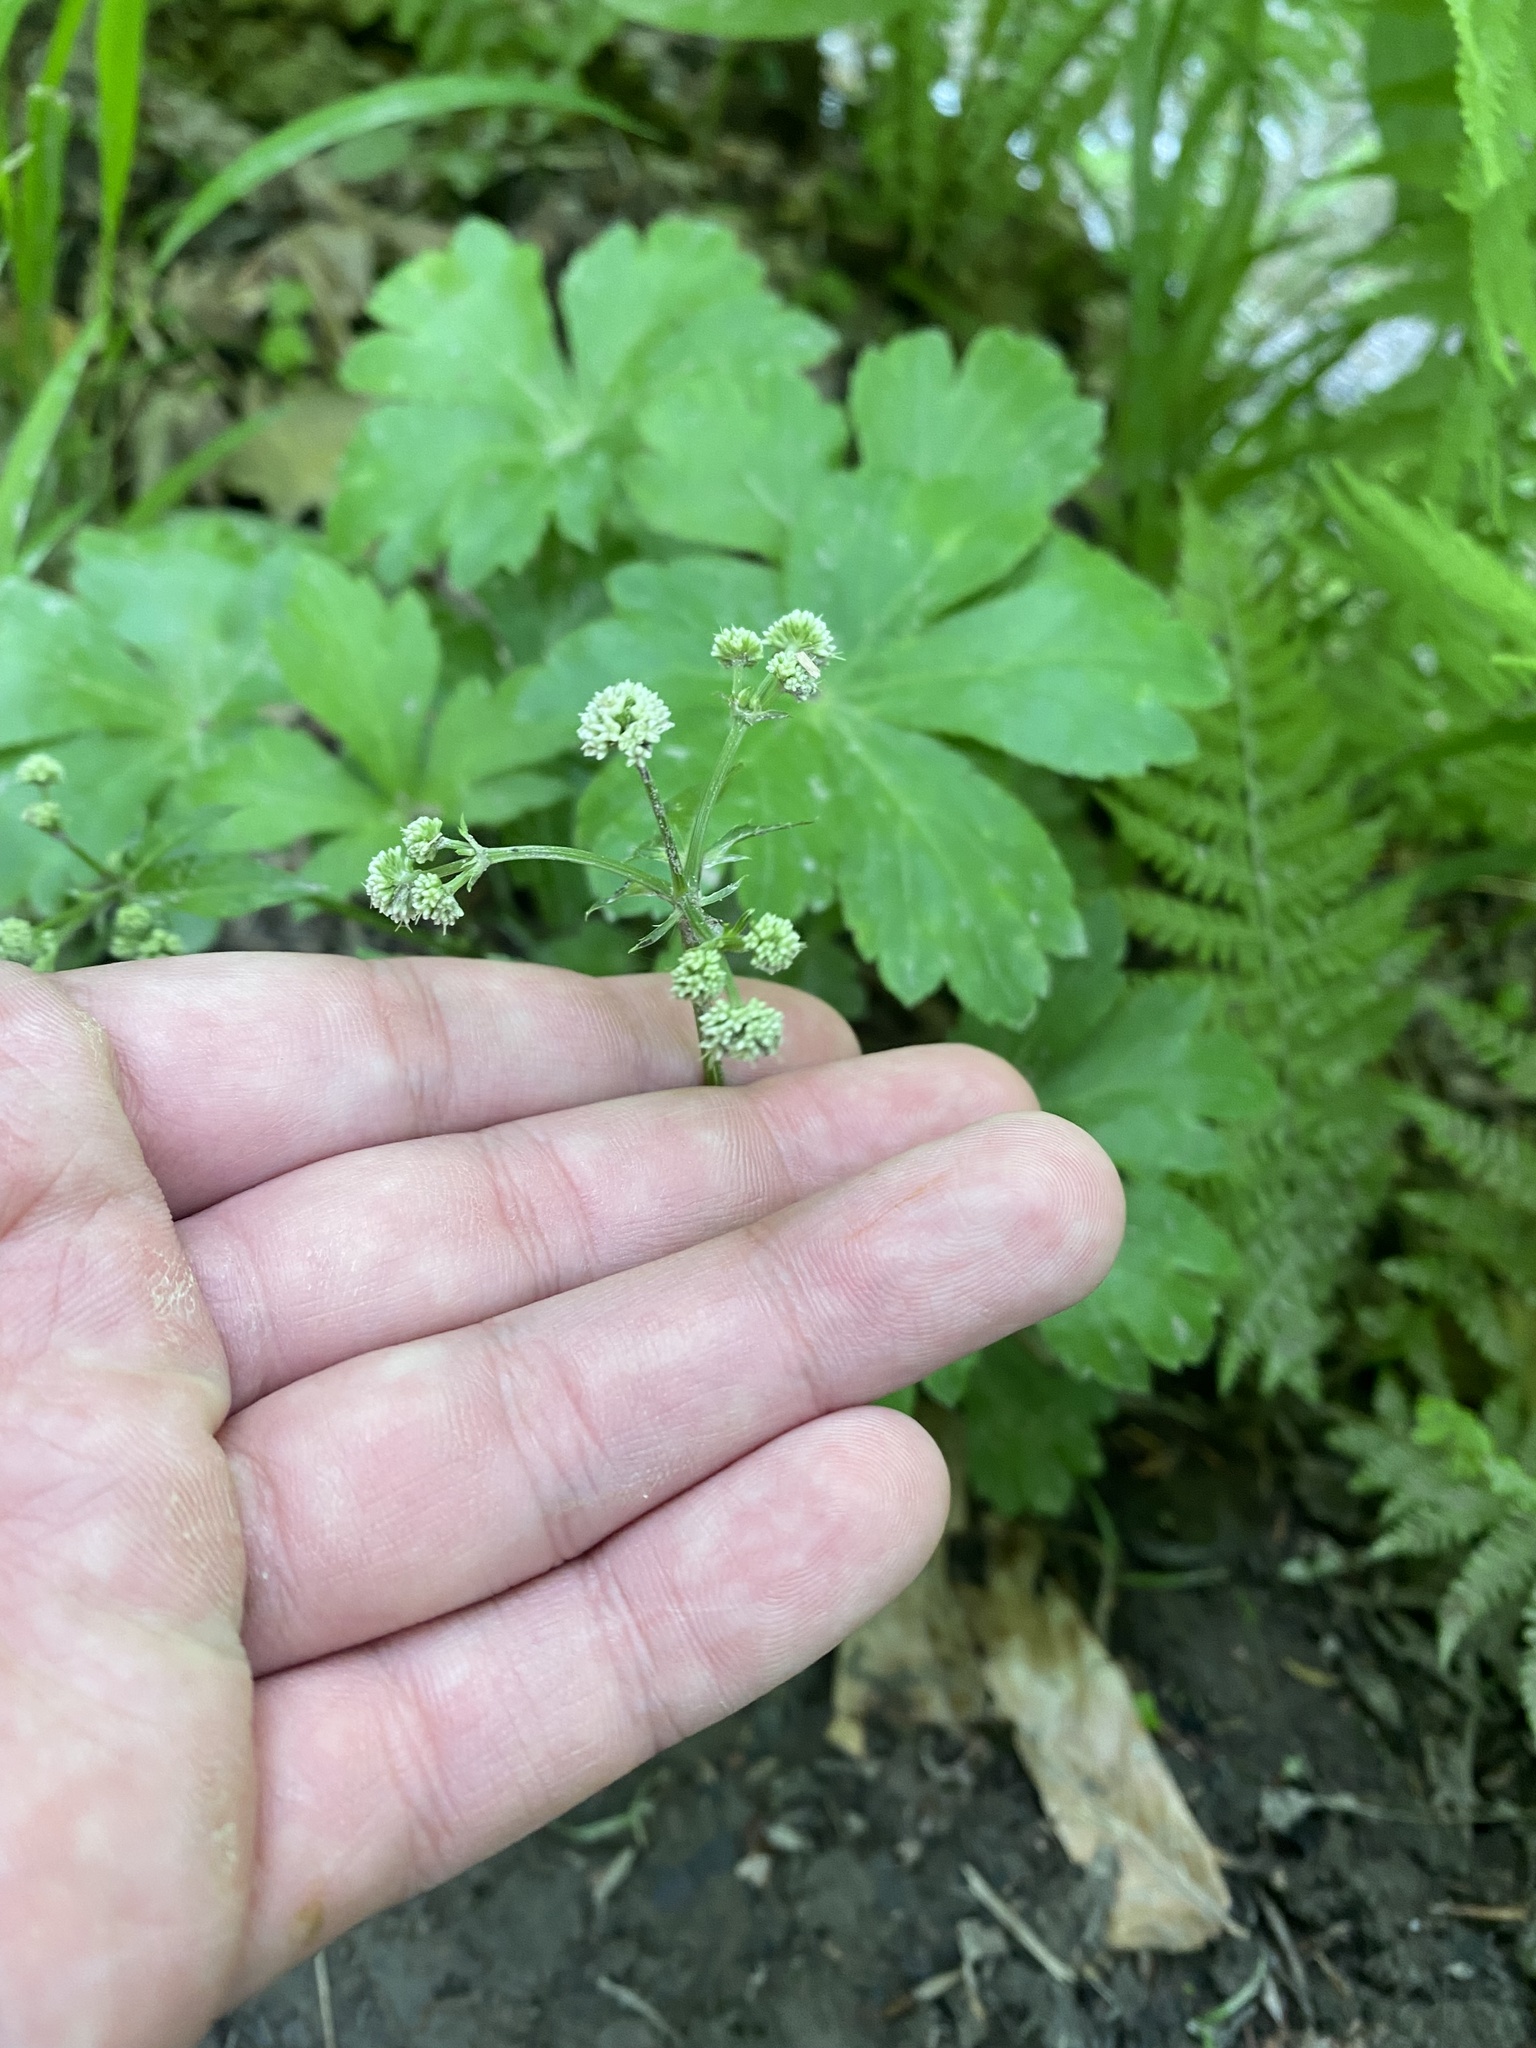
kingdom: Plantae
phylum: Tracheophyta
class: Magnoliopsida
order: Apiales
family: Apiaceae
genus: Sanicula
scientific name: Sanicula europaea
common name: Sanicle
